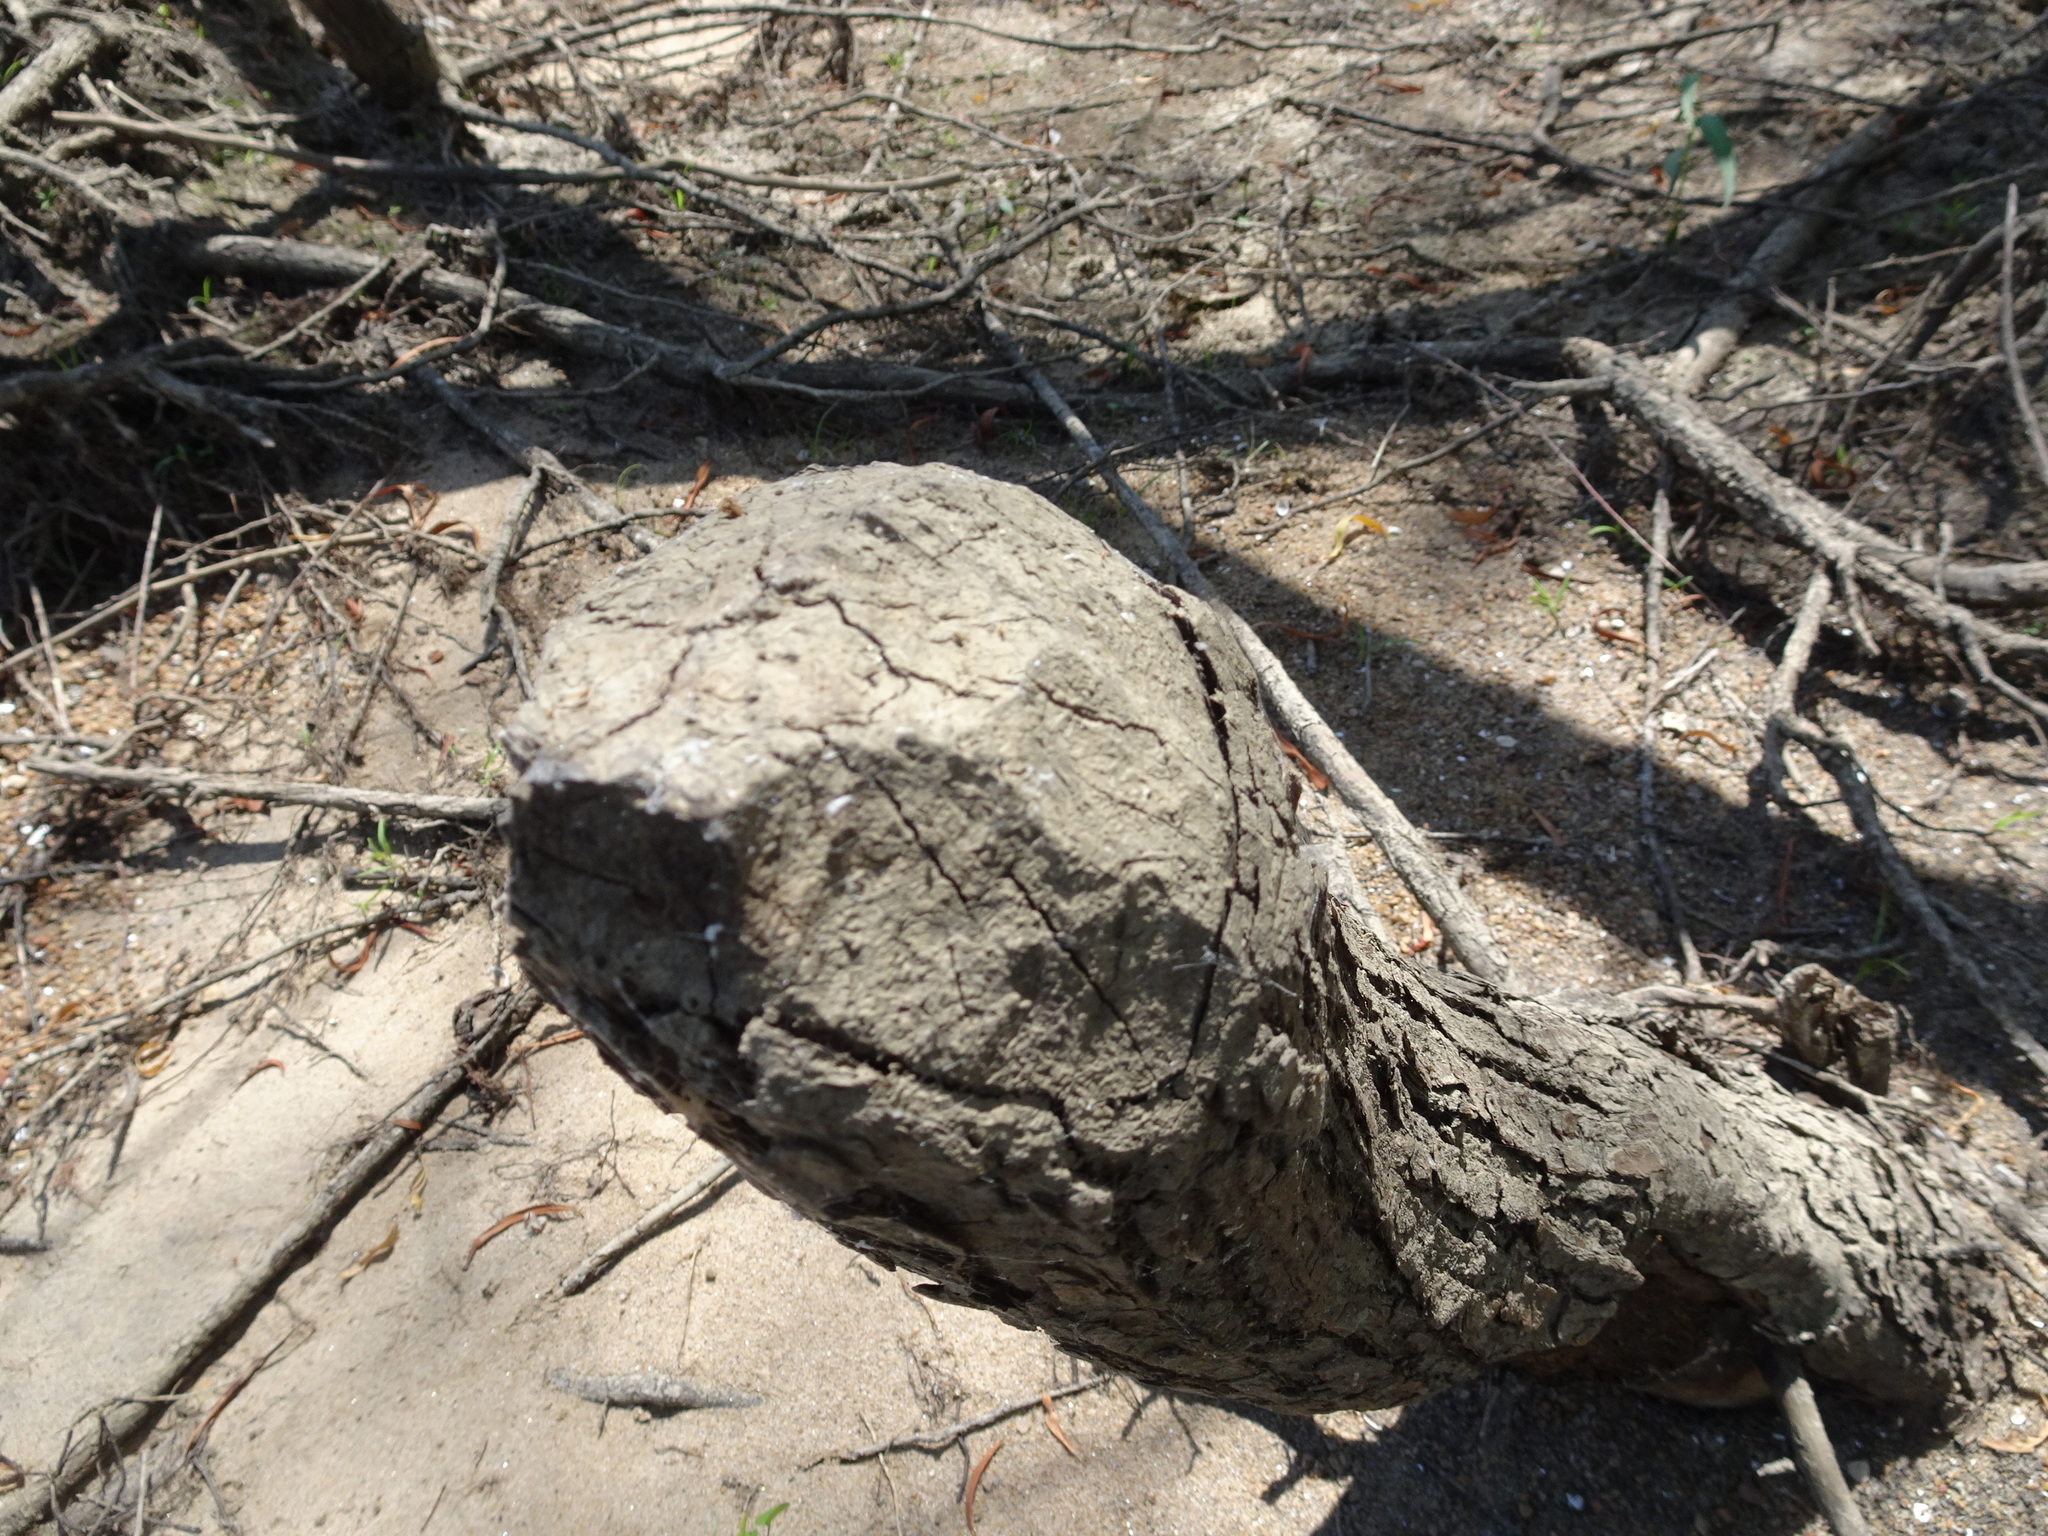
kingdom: Animalia
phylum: Chordata
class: Mammalia
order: Rodentia
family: Castoridae
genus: Castor
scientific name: Castor canadensis
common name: American beaver
